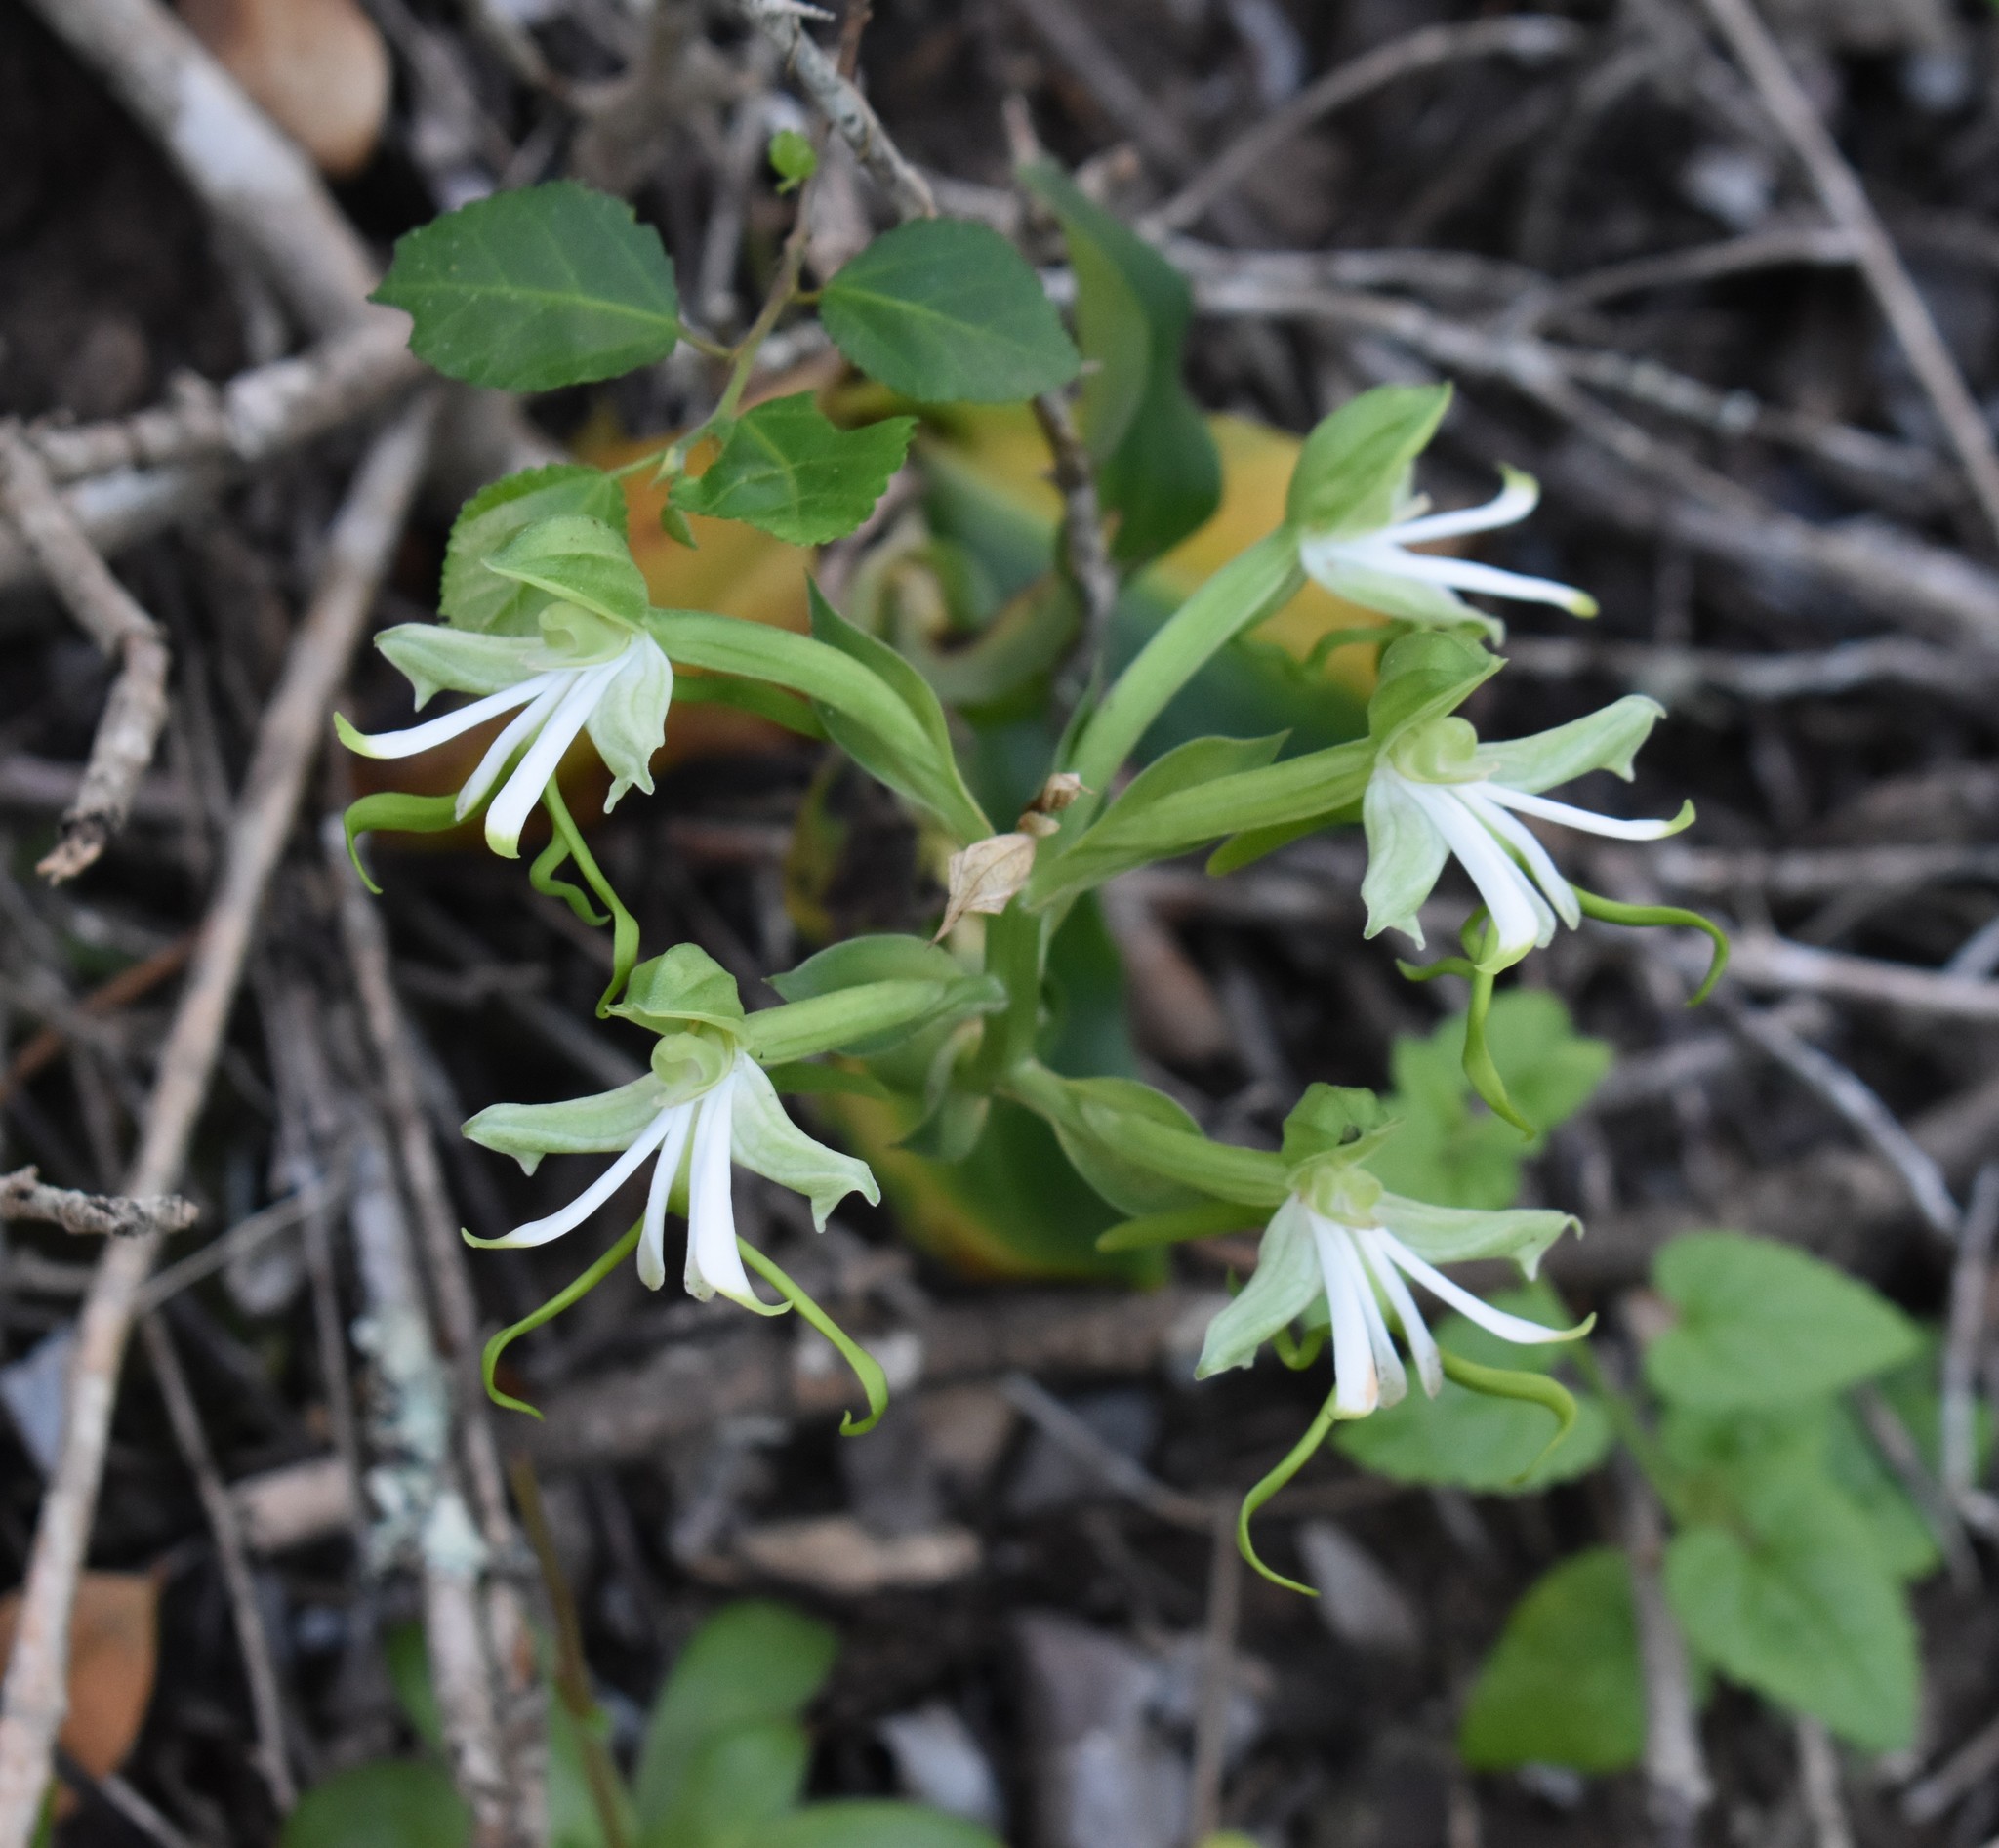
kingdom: Plantae
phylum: Tracheophyta
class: Liliopsida
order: Asparagales
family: Orchidaceae
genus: Bonatea
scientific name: Bonatea speciosa
